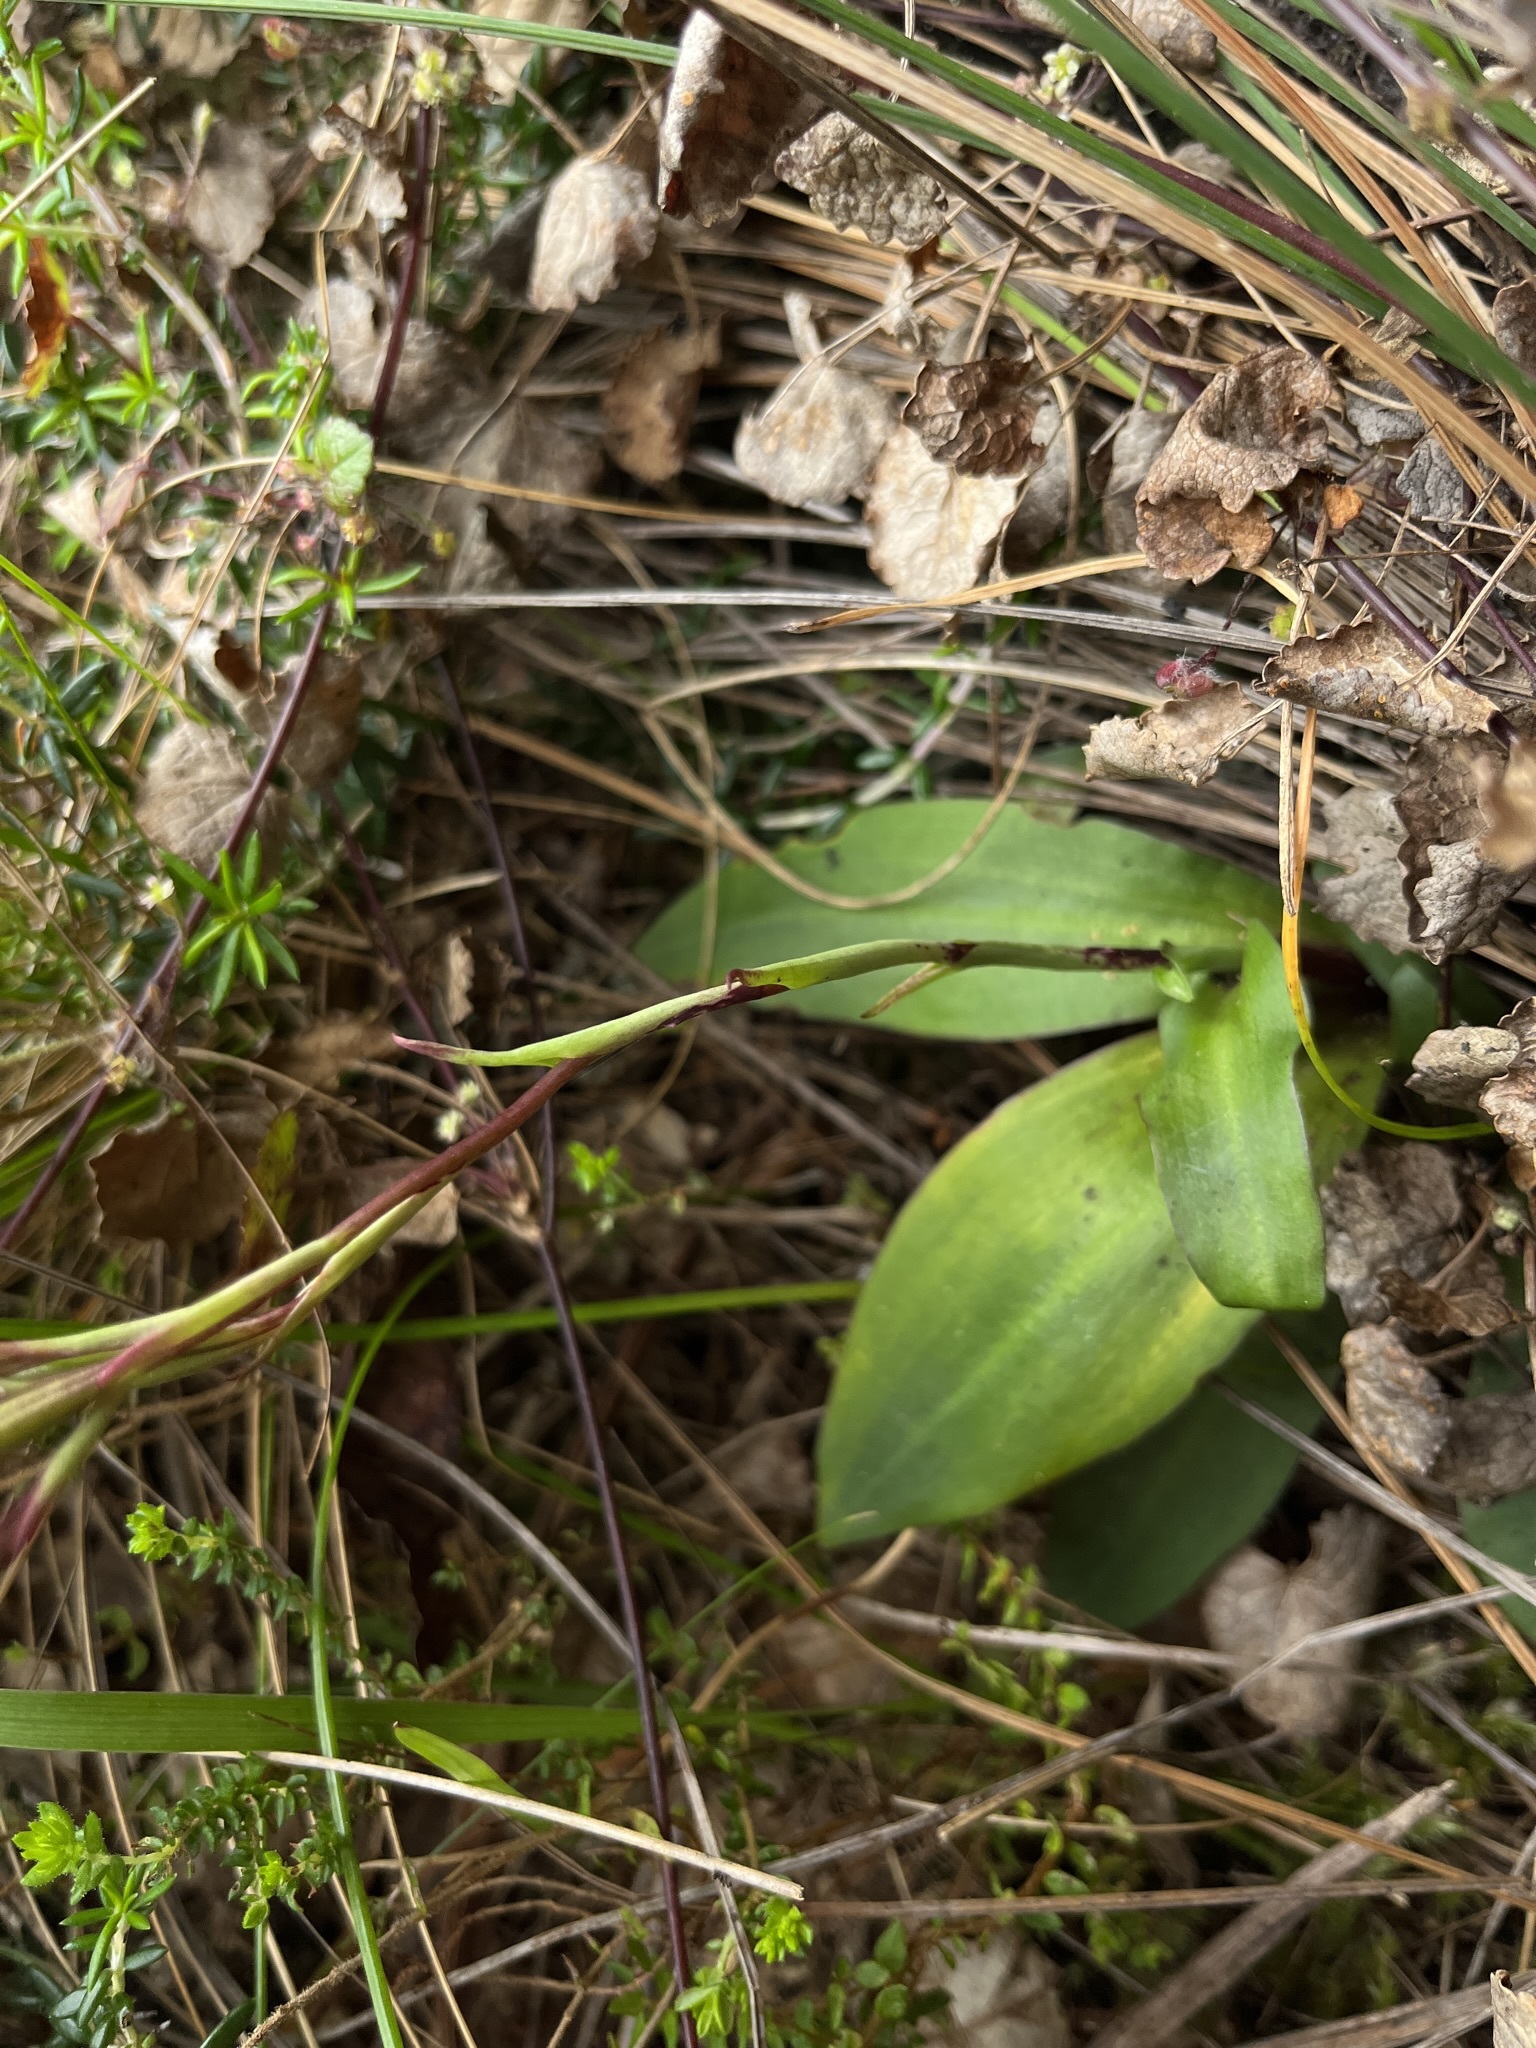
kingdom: Plantae
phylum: Tracheophyta
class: Liliopsida
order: Asparagales
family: Orchidaceae
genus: Disa
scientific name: Disa rosea
